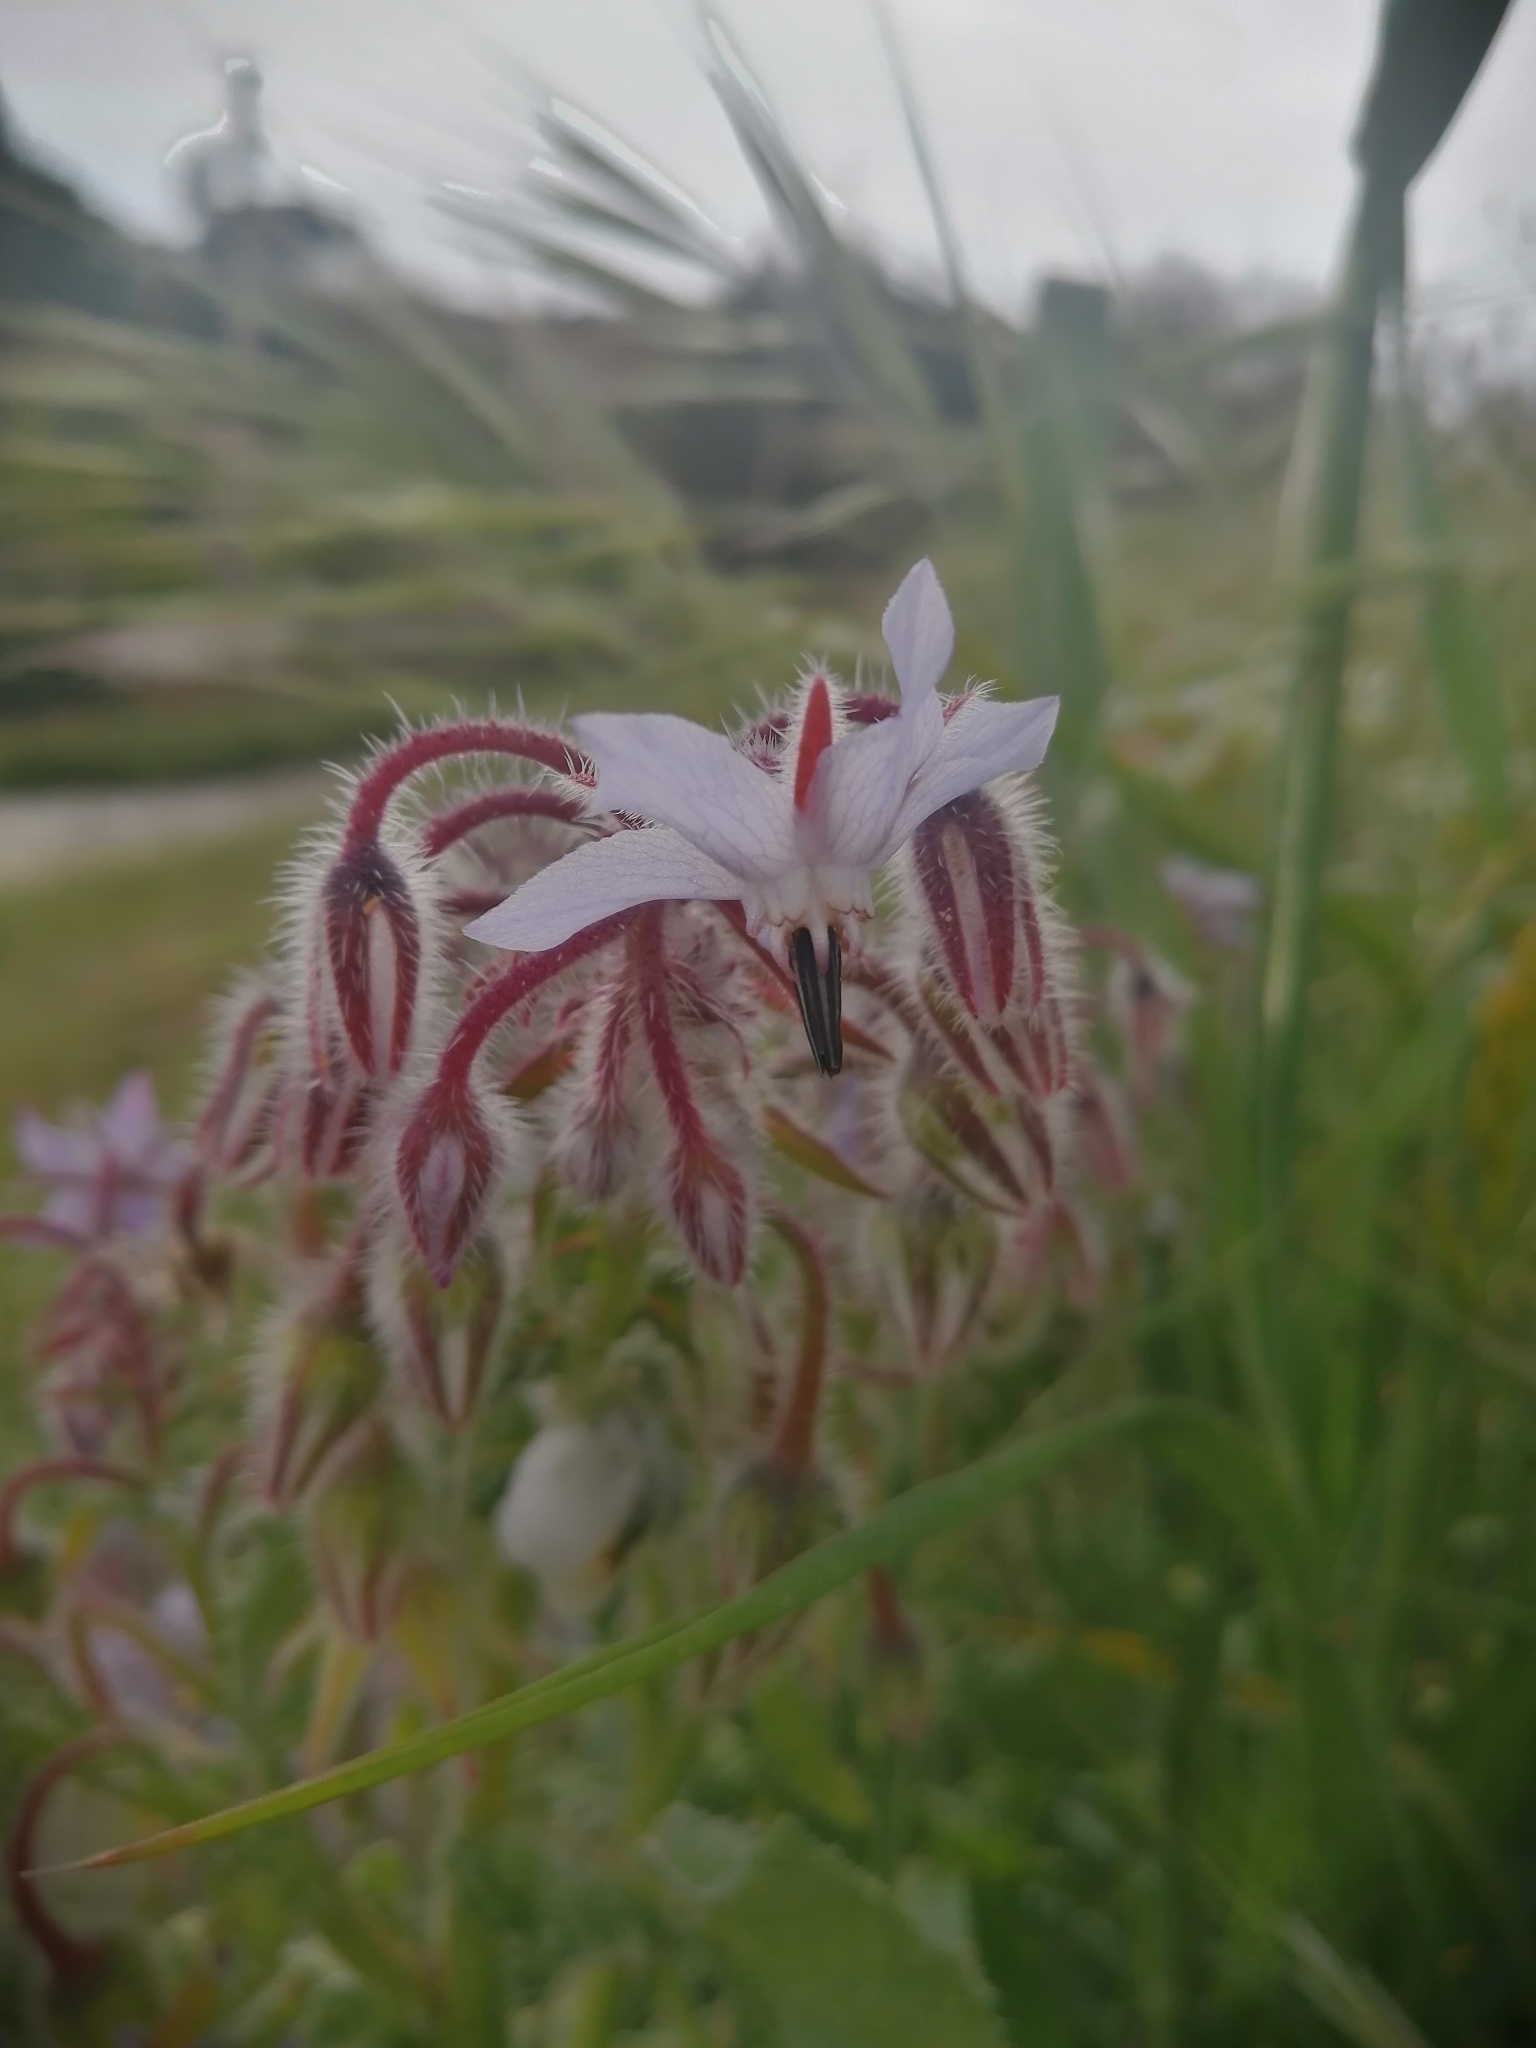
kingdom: Plantae
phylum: Tracheophyta
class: Magnoliopsida
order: Boraginales
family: Boraginaceae
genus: Borago
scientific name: Borago officinalis
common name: Borage
